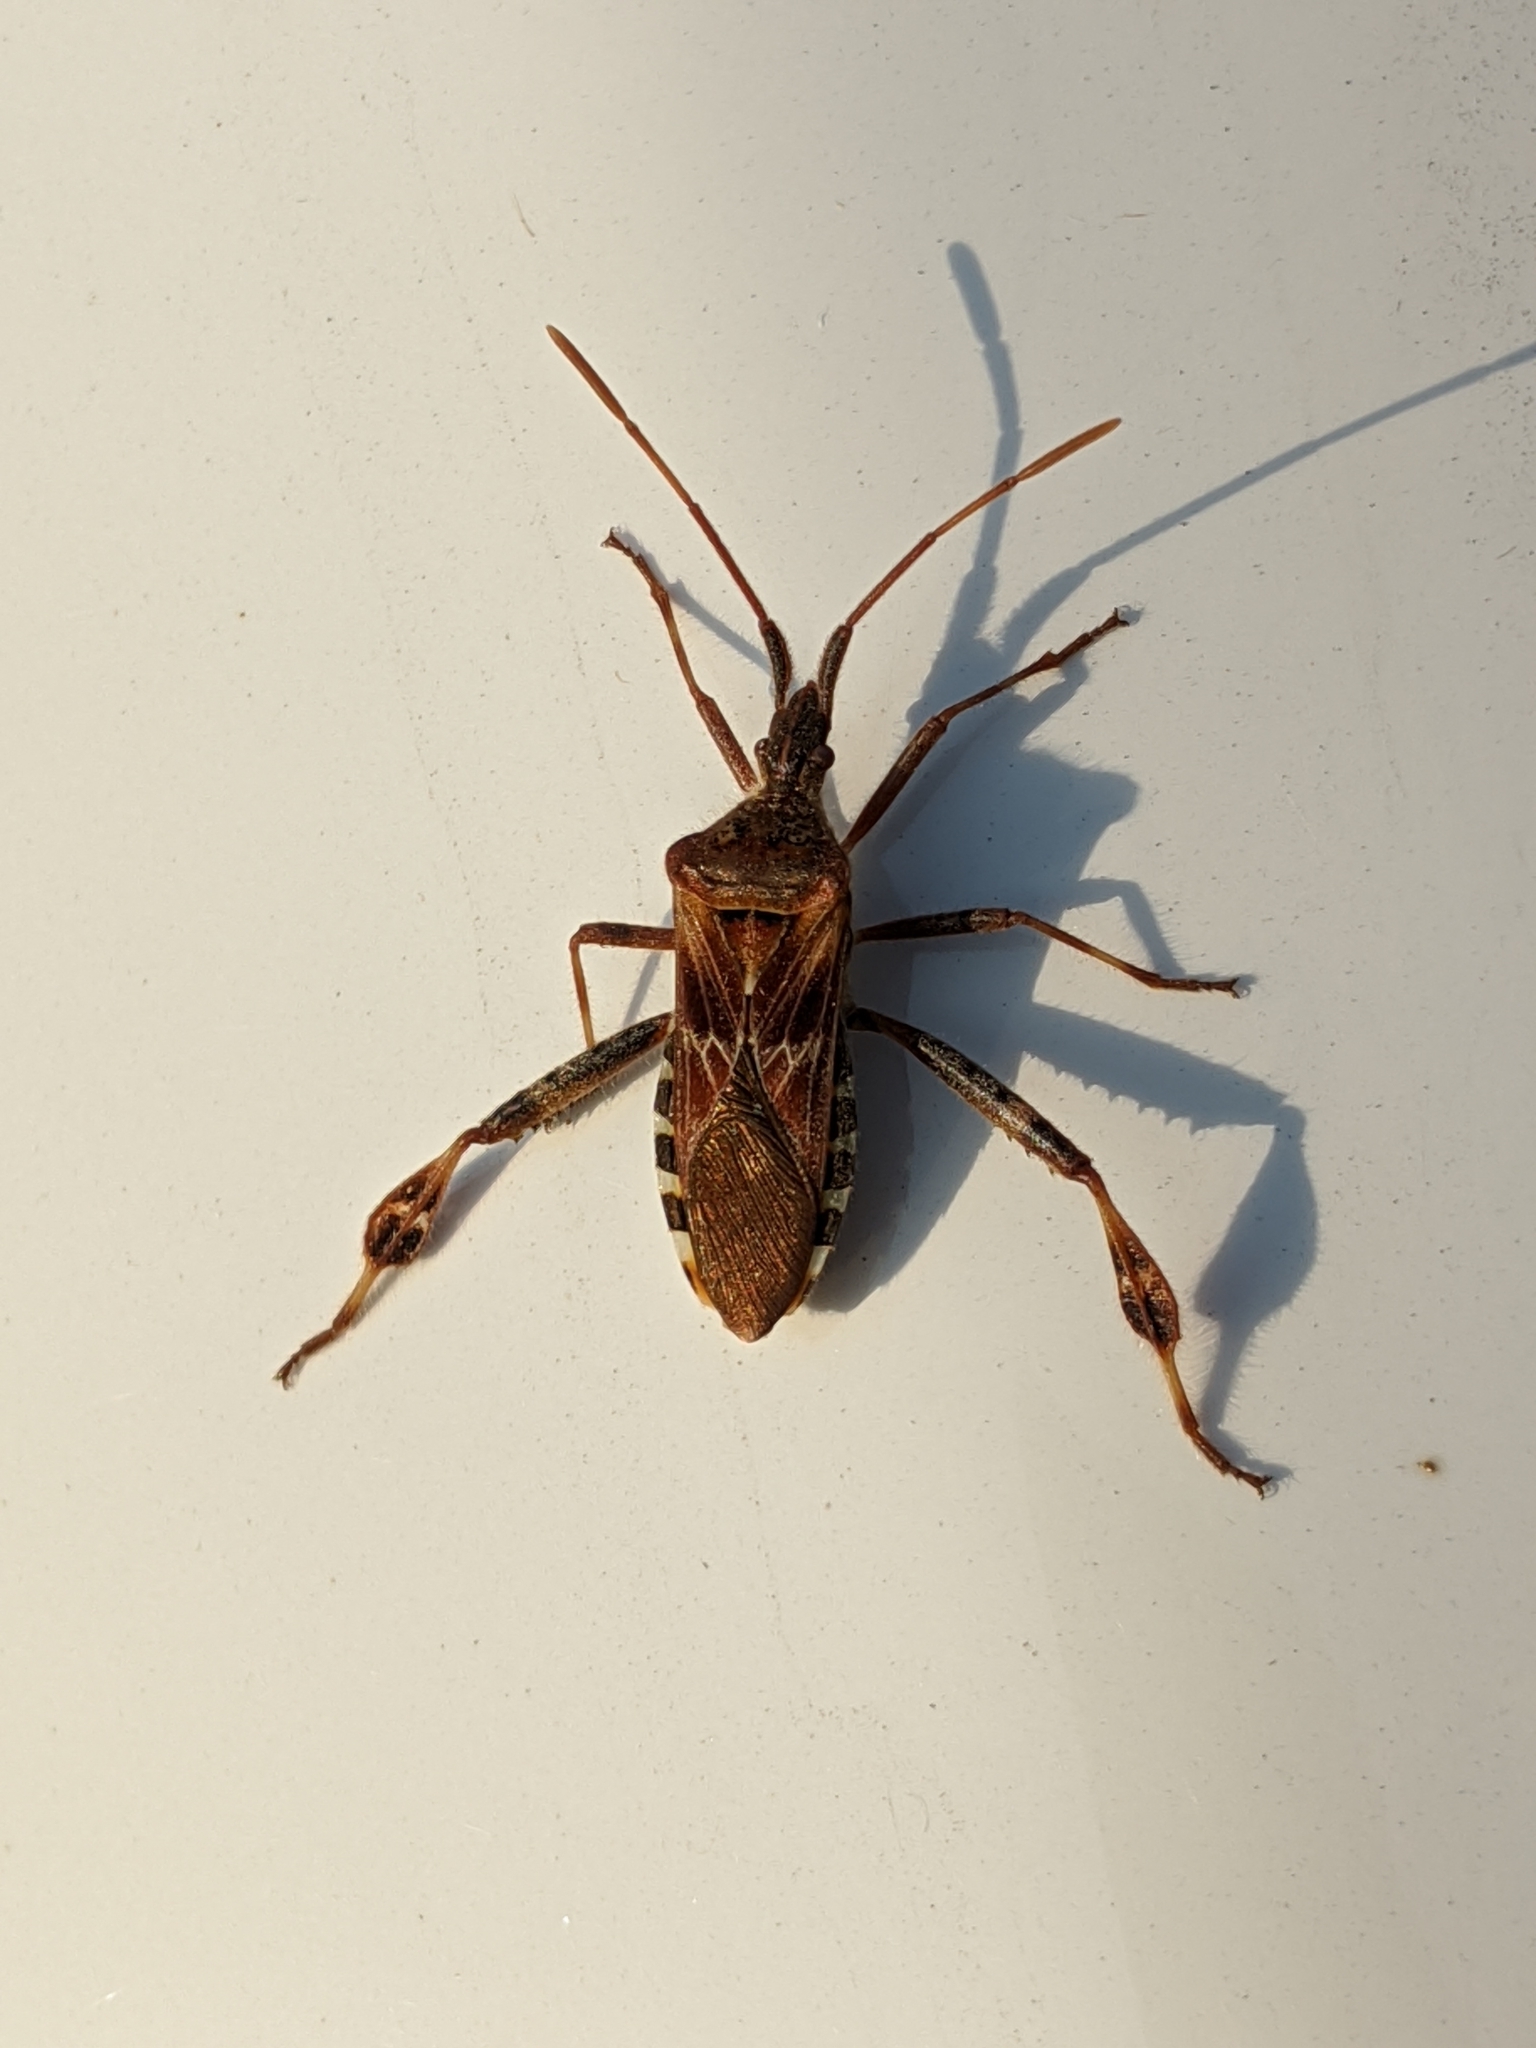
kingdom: Animalia
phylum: Arthropoda
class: Insecta
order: Hemiptera
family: Coreidae
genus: Leptoglossus
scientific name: Leptoglossus occidentalis
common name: Western conifer-seed bug
